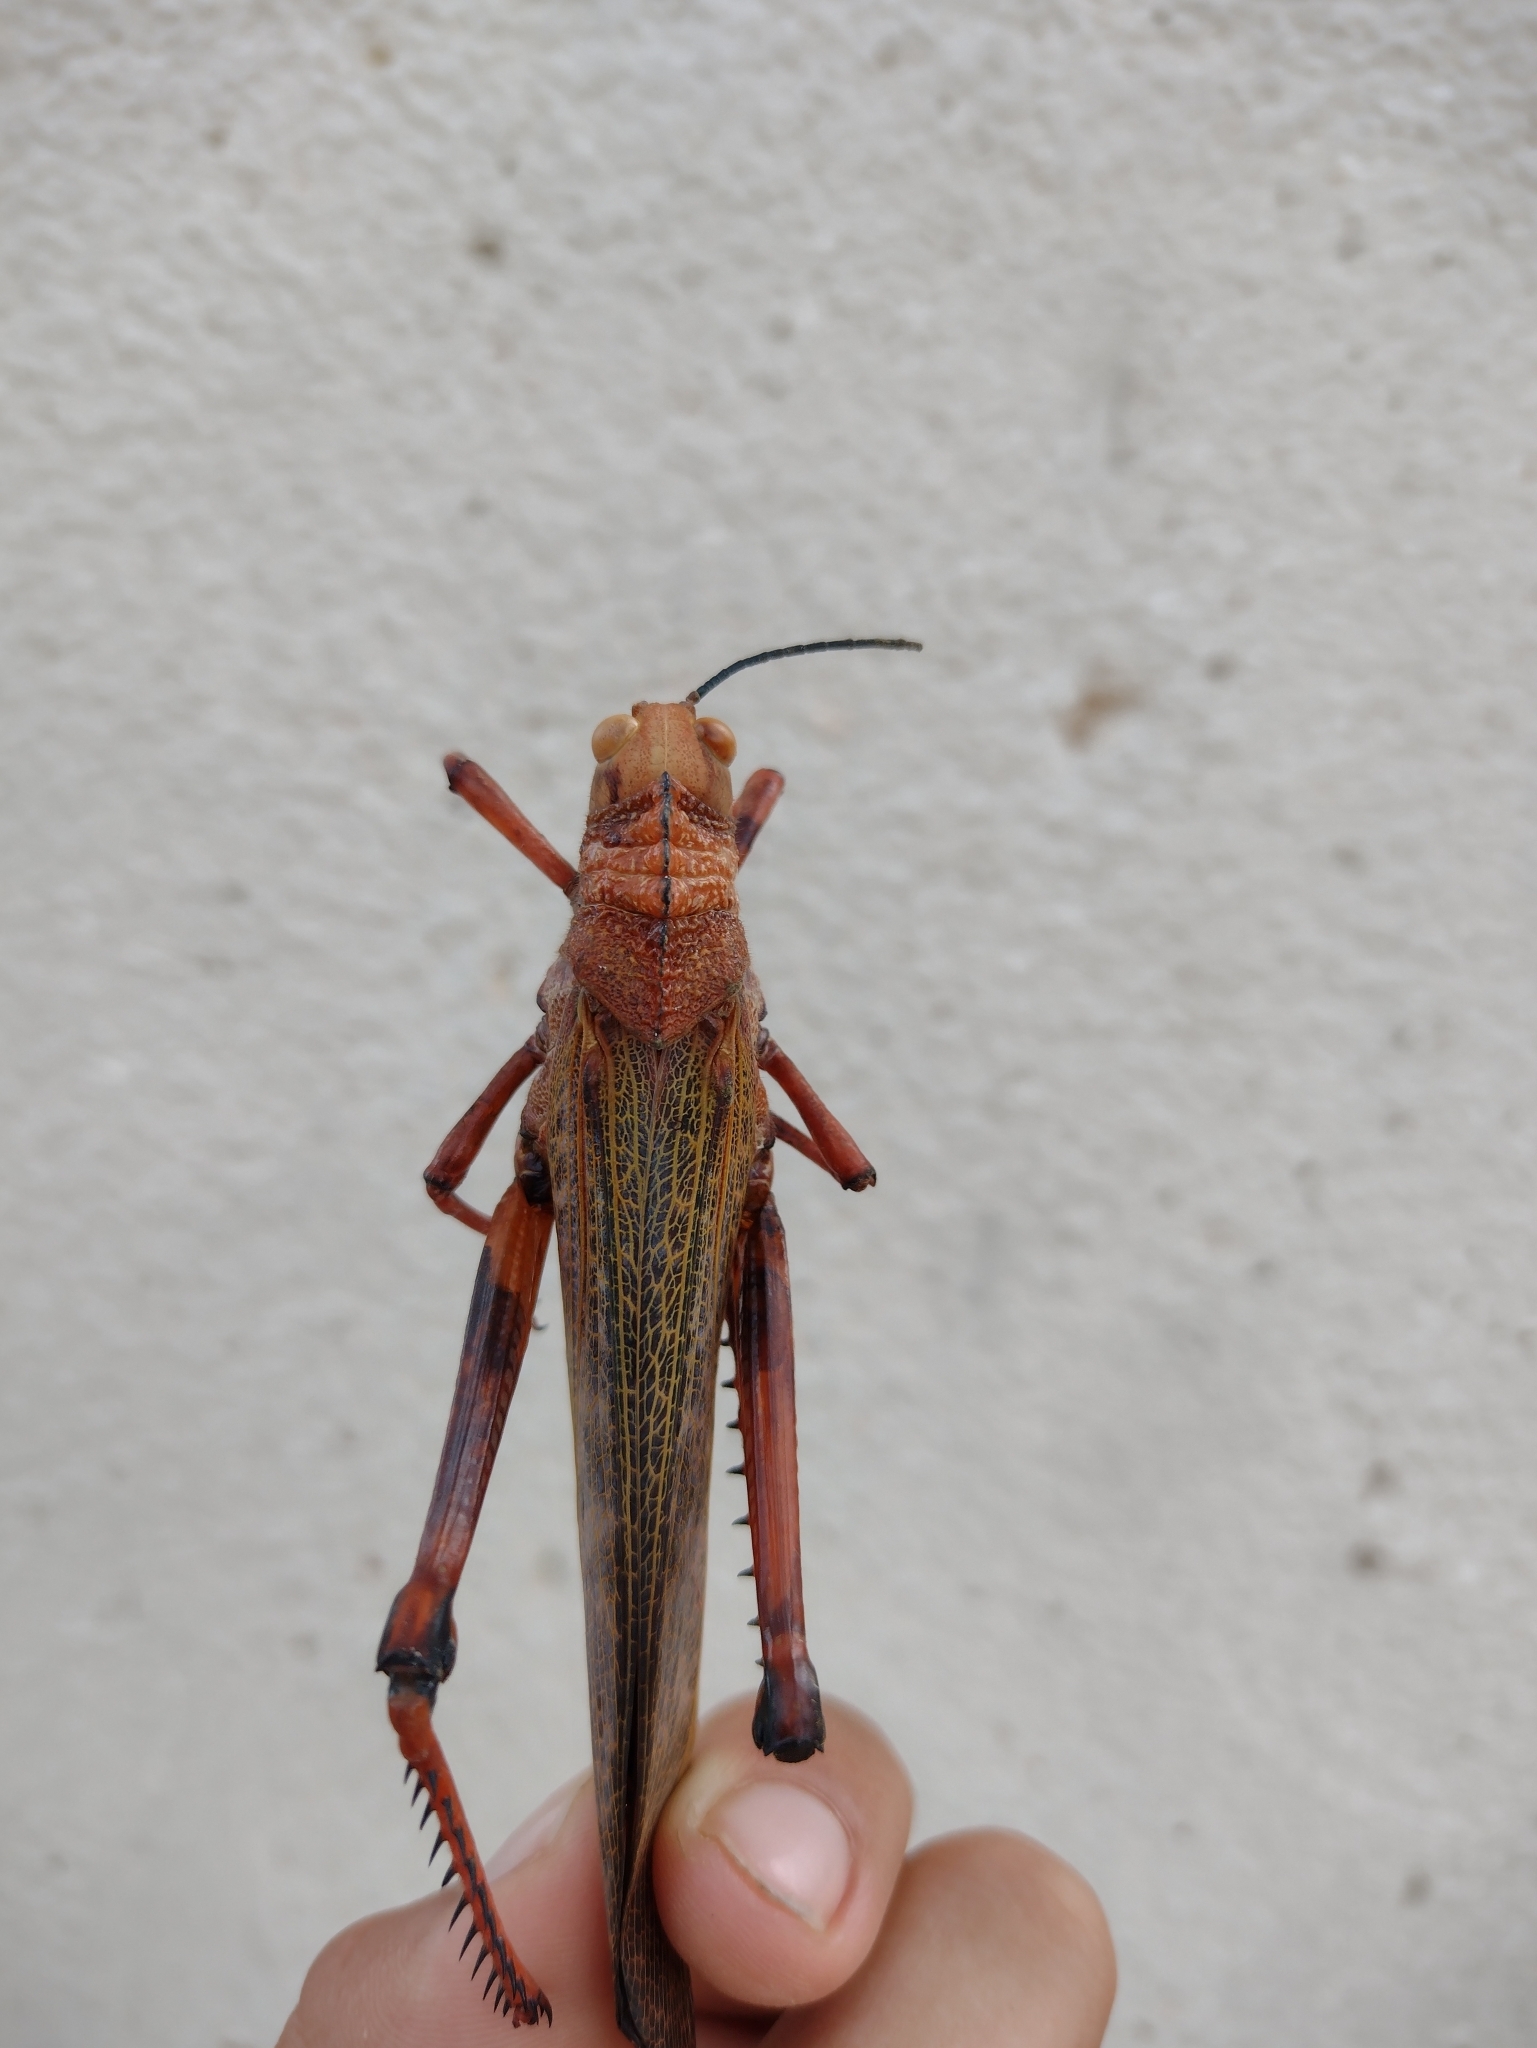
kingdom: Animalia
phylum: Arthropoda
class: Insecta
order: Orthoptera
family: Romaleidae
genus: Tropidacris
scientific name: Tropidacris cristata
